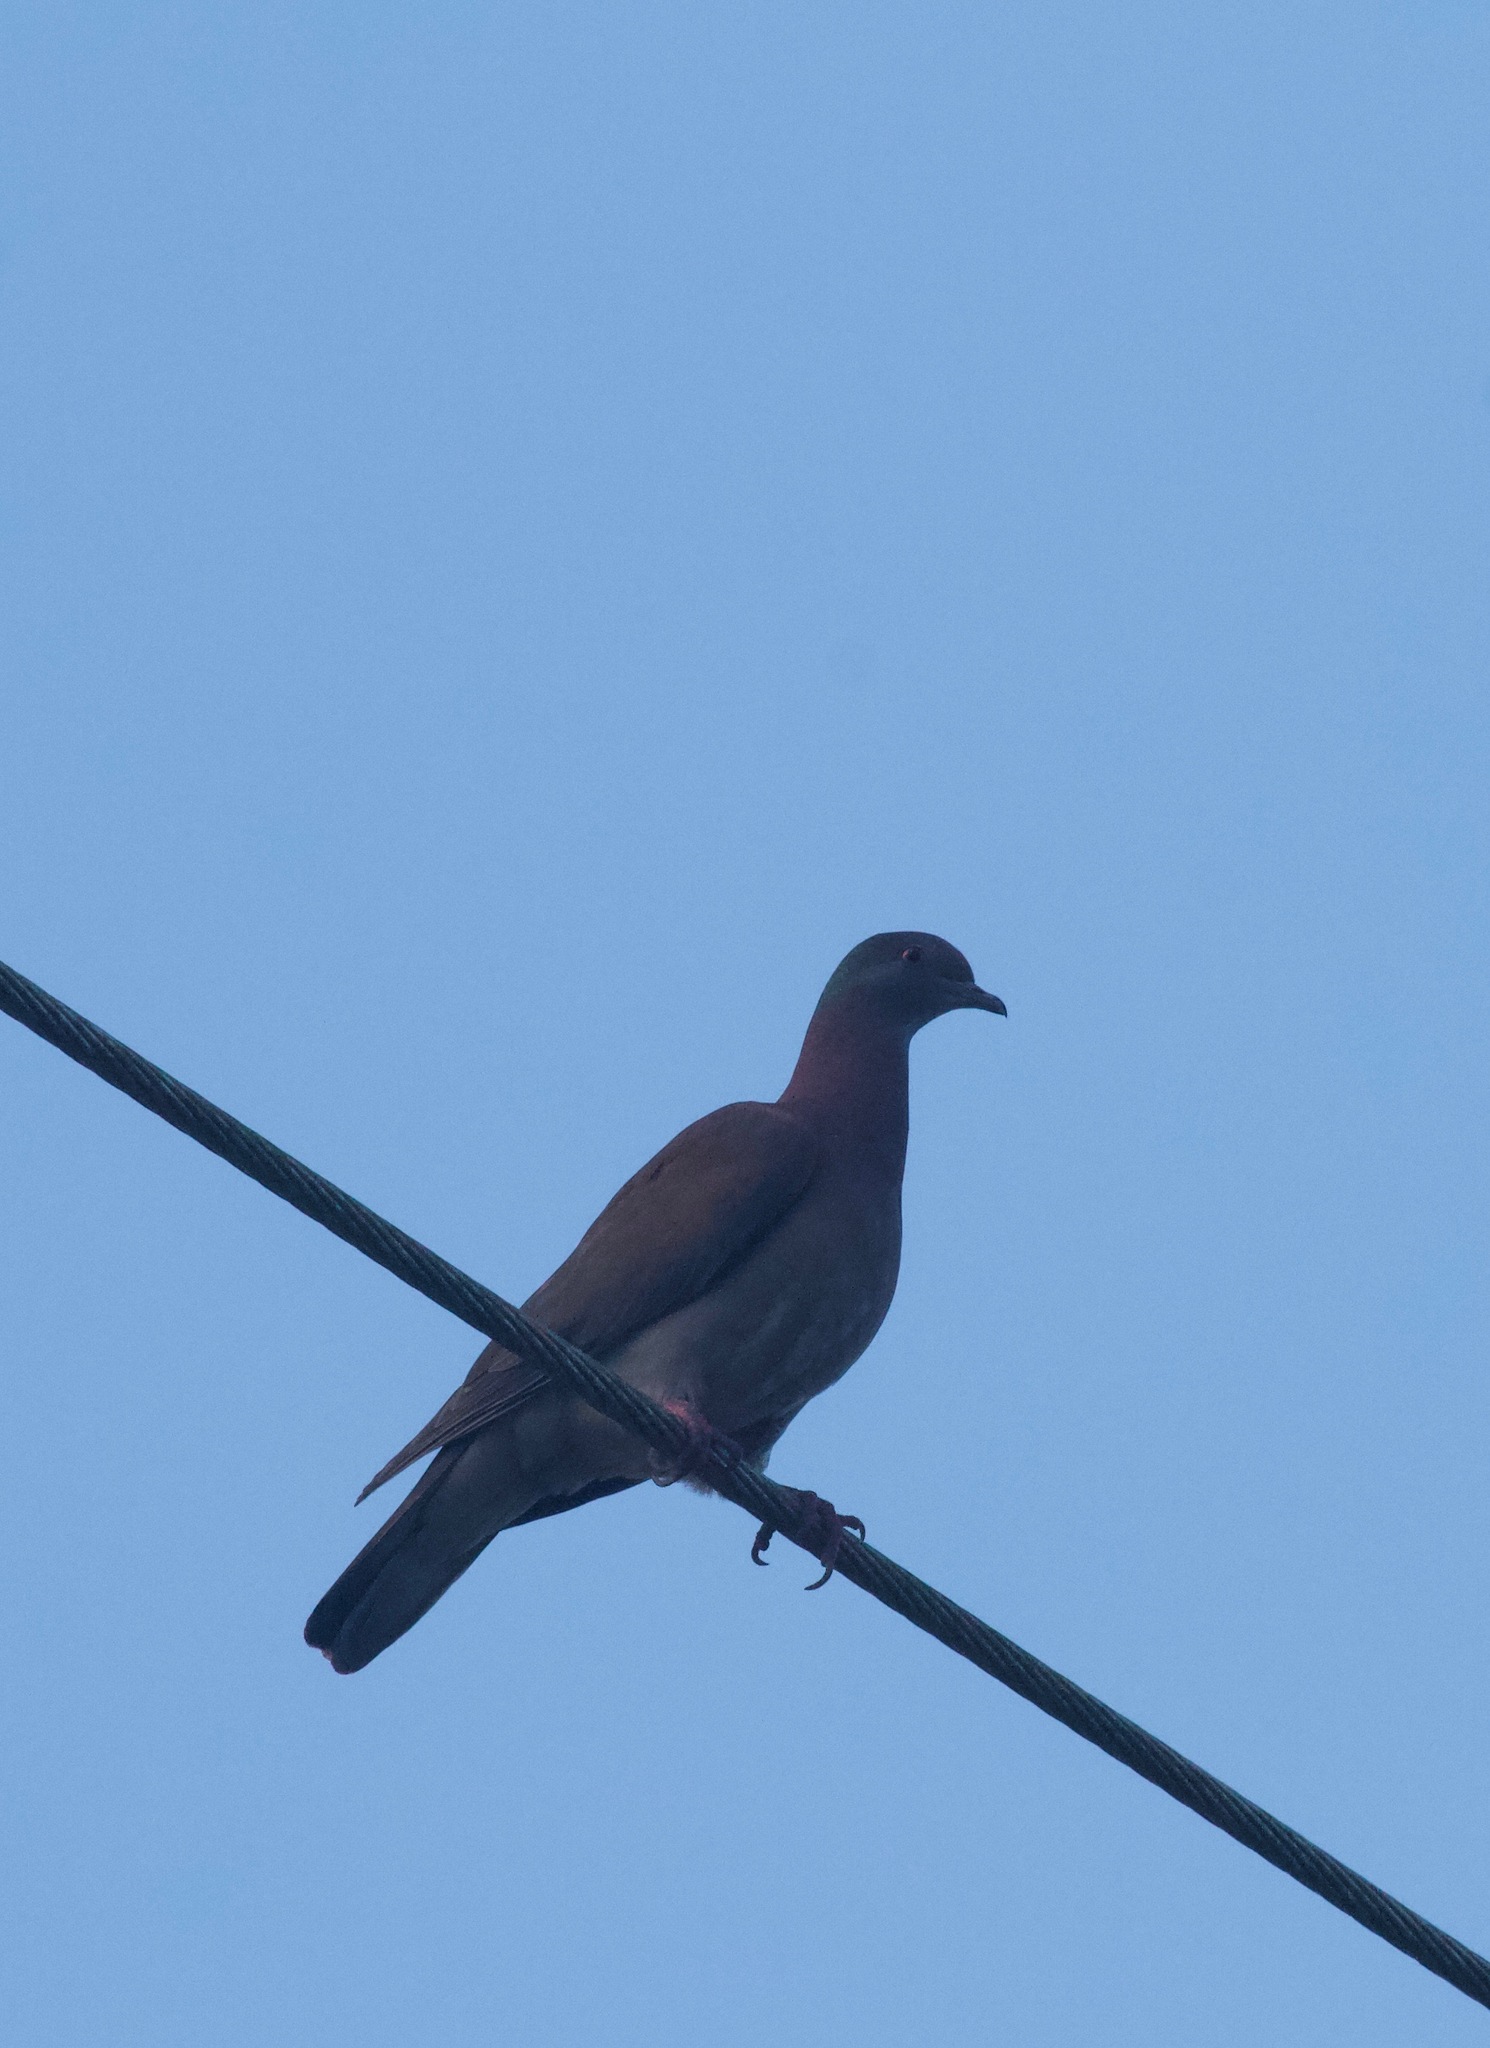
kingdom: Animalia
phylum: Chordata
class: Aves
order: Columbiformes
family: Columbidae
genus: Patagioenas
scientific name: Patagioenas cayennensis
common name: Pale-vented pigeon
